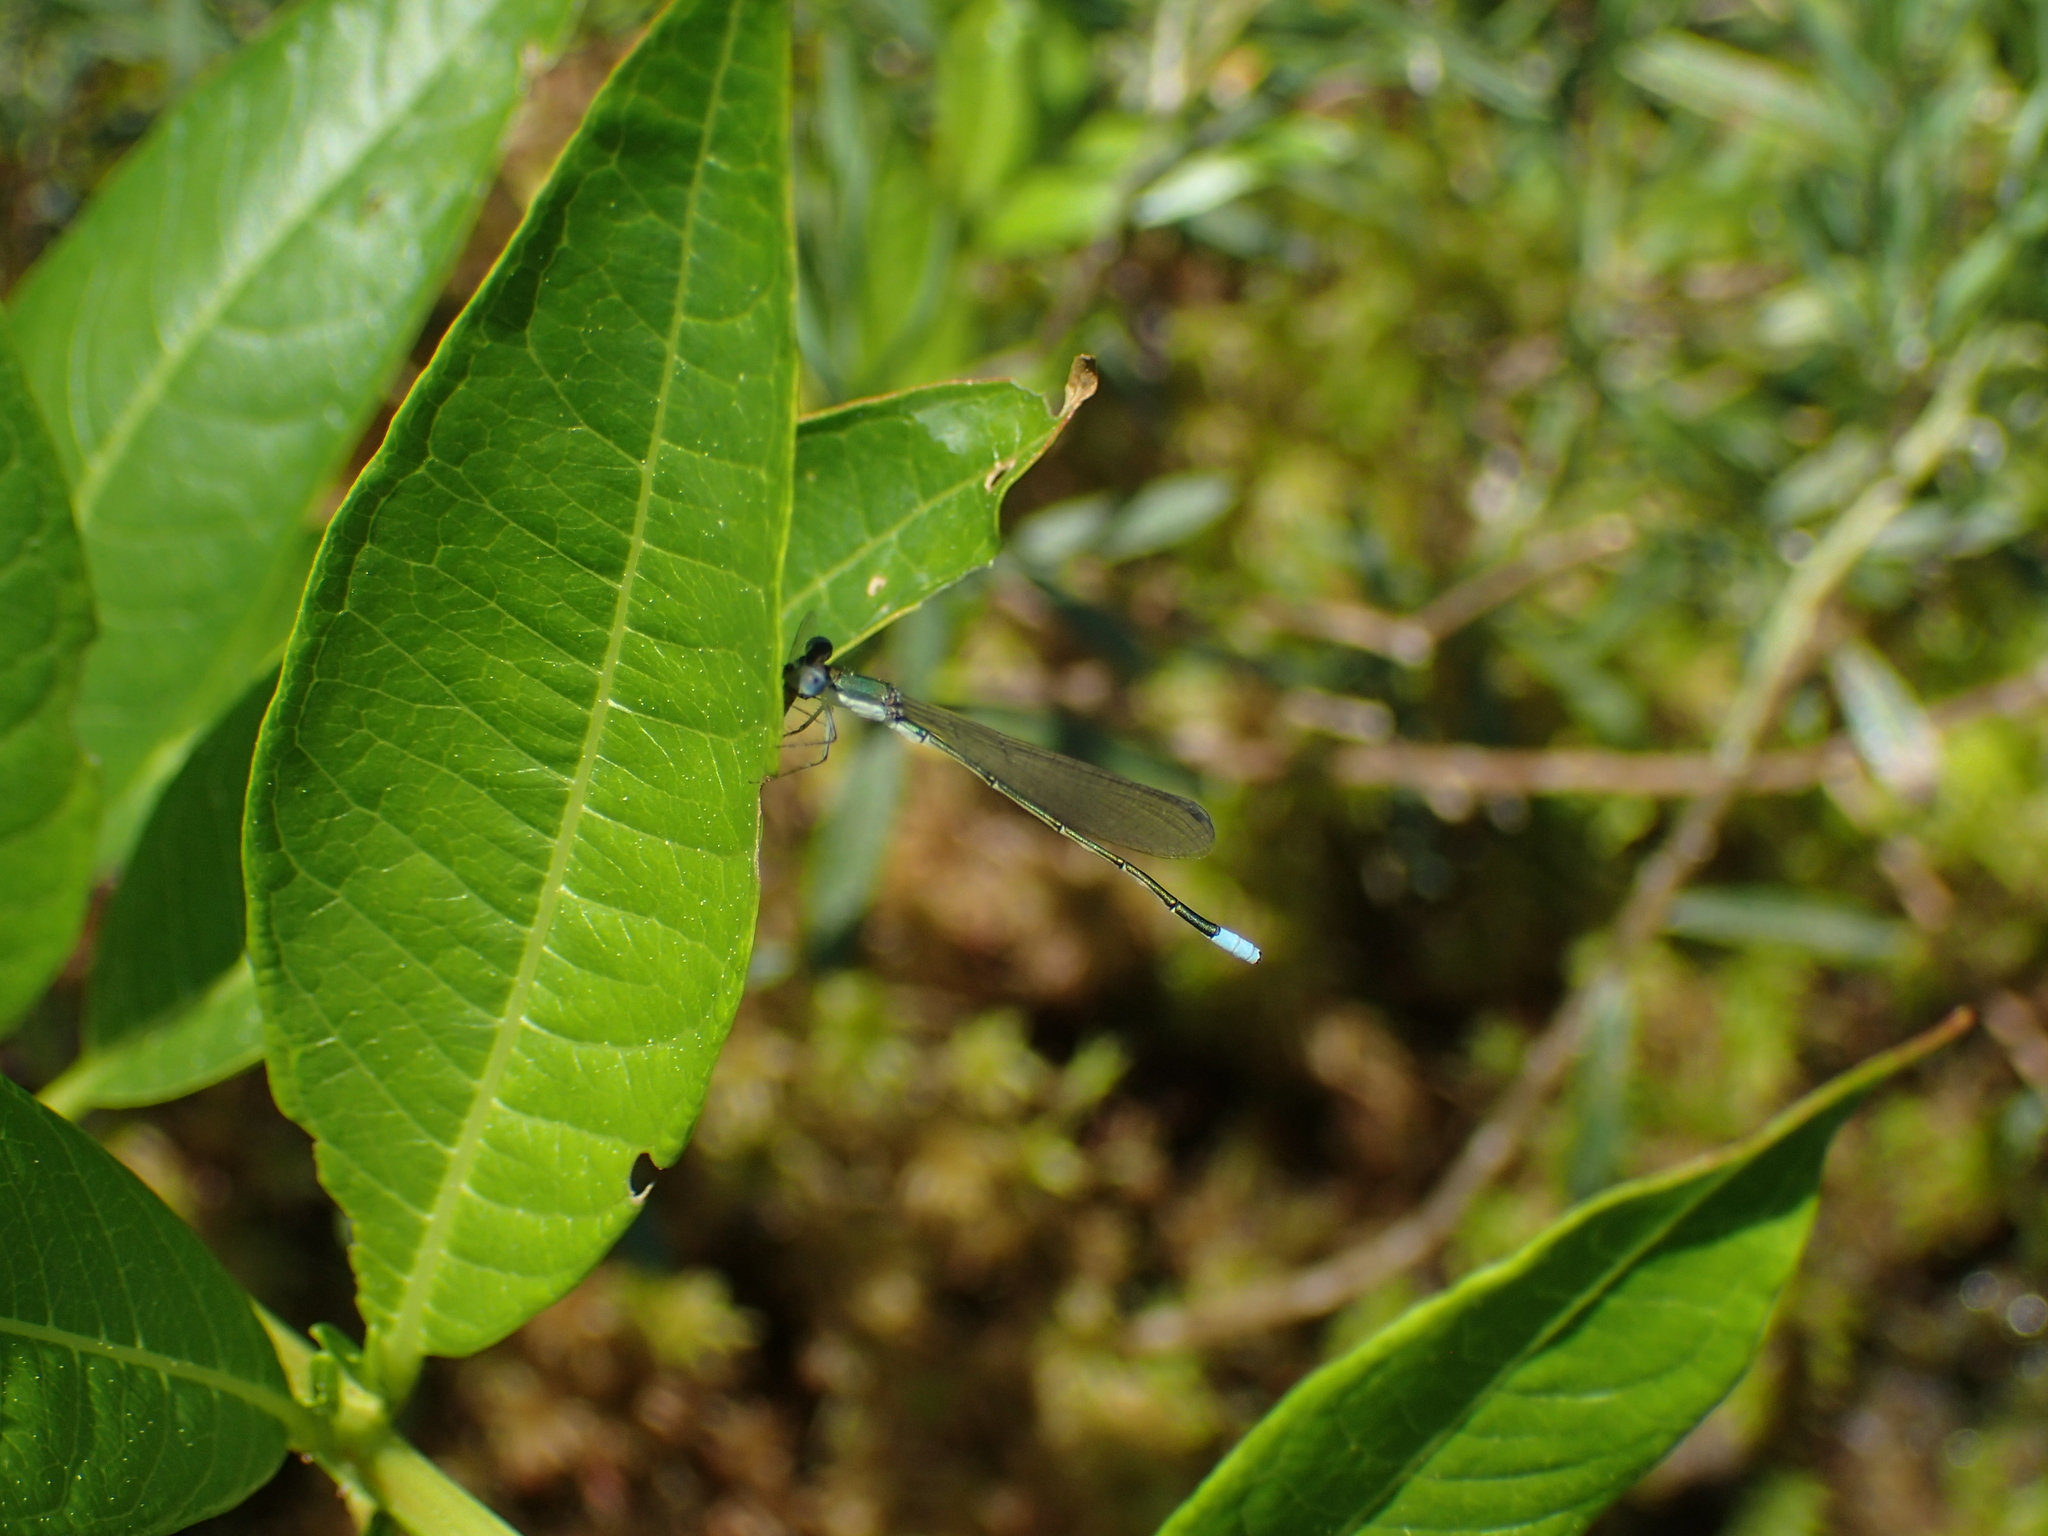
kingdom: Animalia
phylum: Arthropoda
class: Insecta
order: Odonata
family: Coenagrionidae
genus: Nehalennia
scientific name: Nehalennia gracilis
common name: Sphagnum sprite
